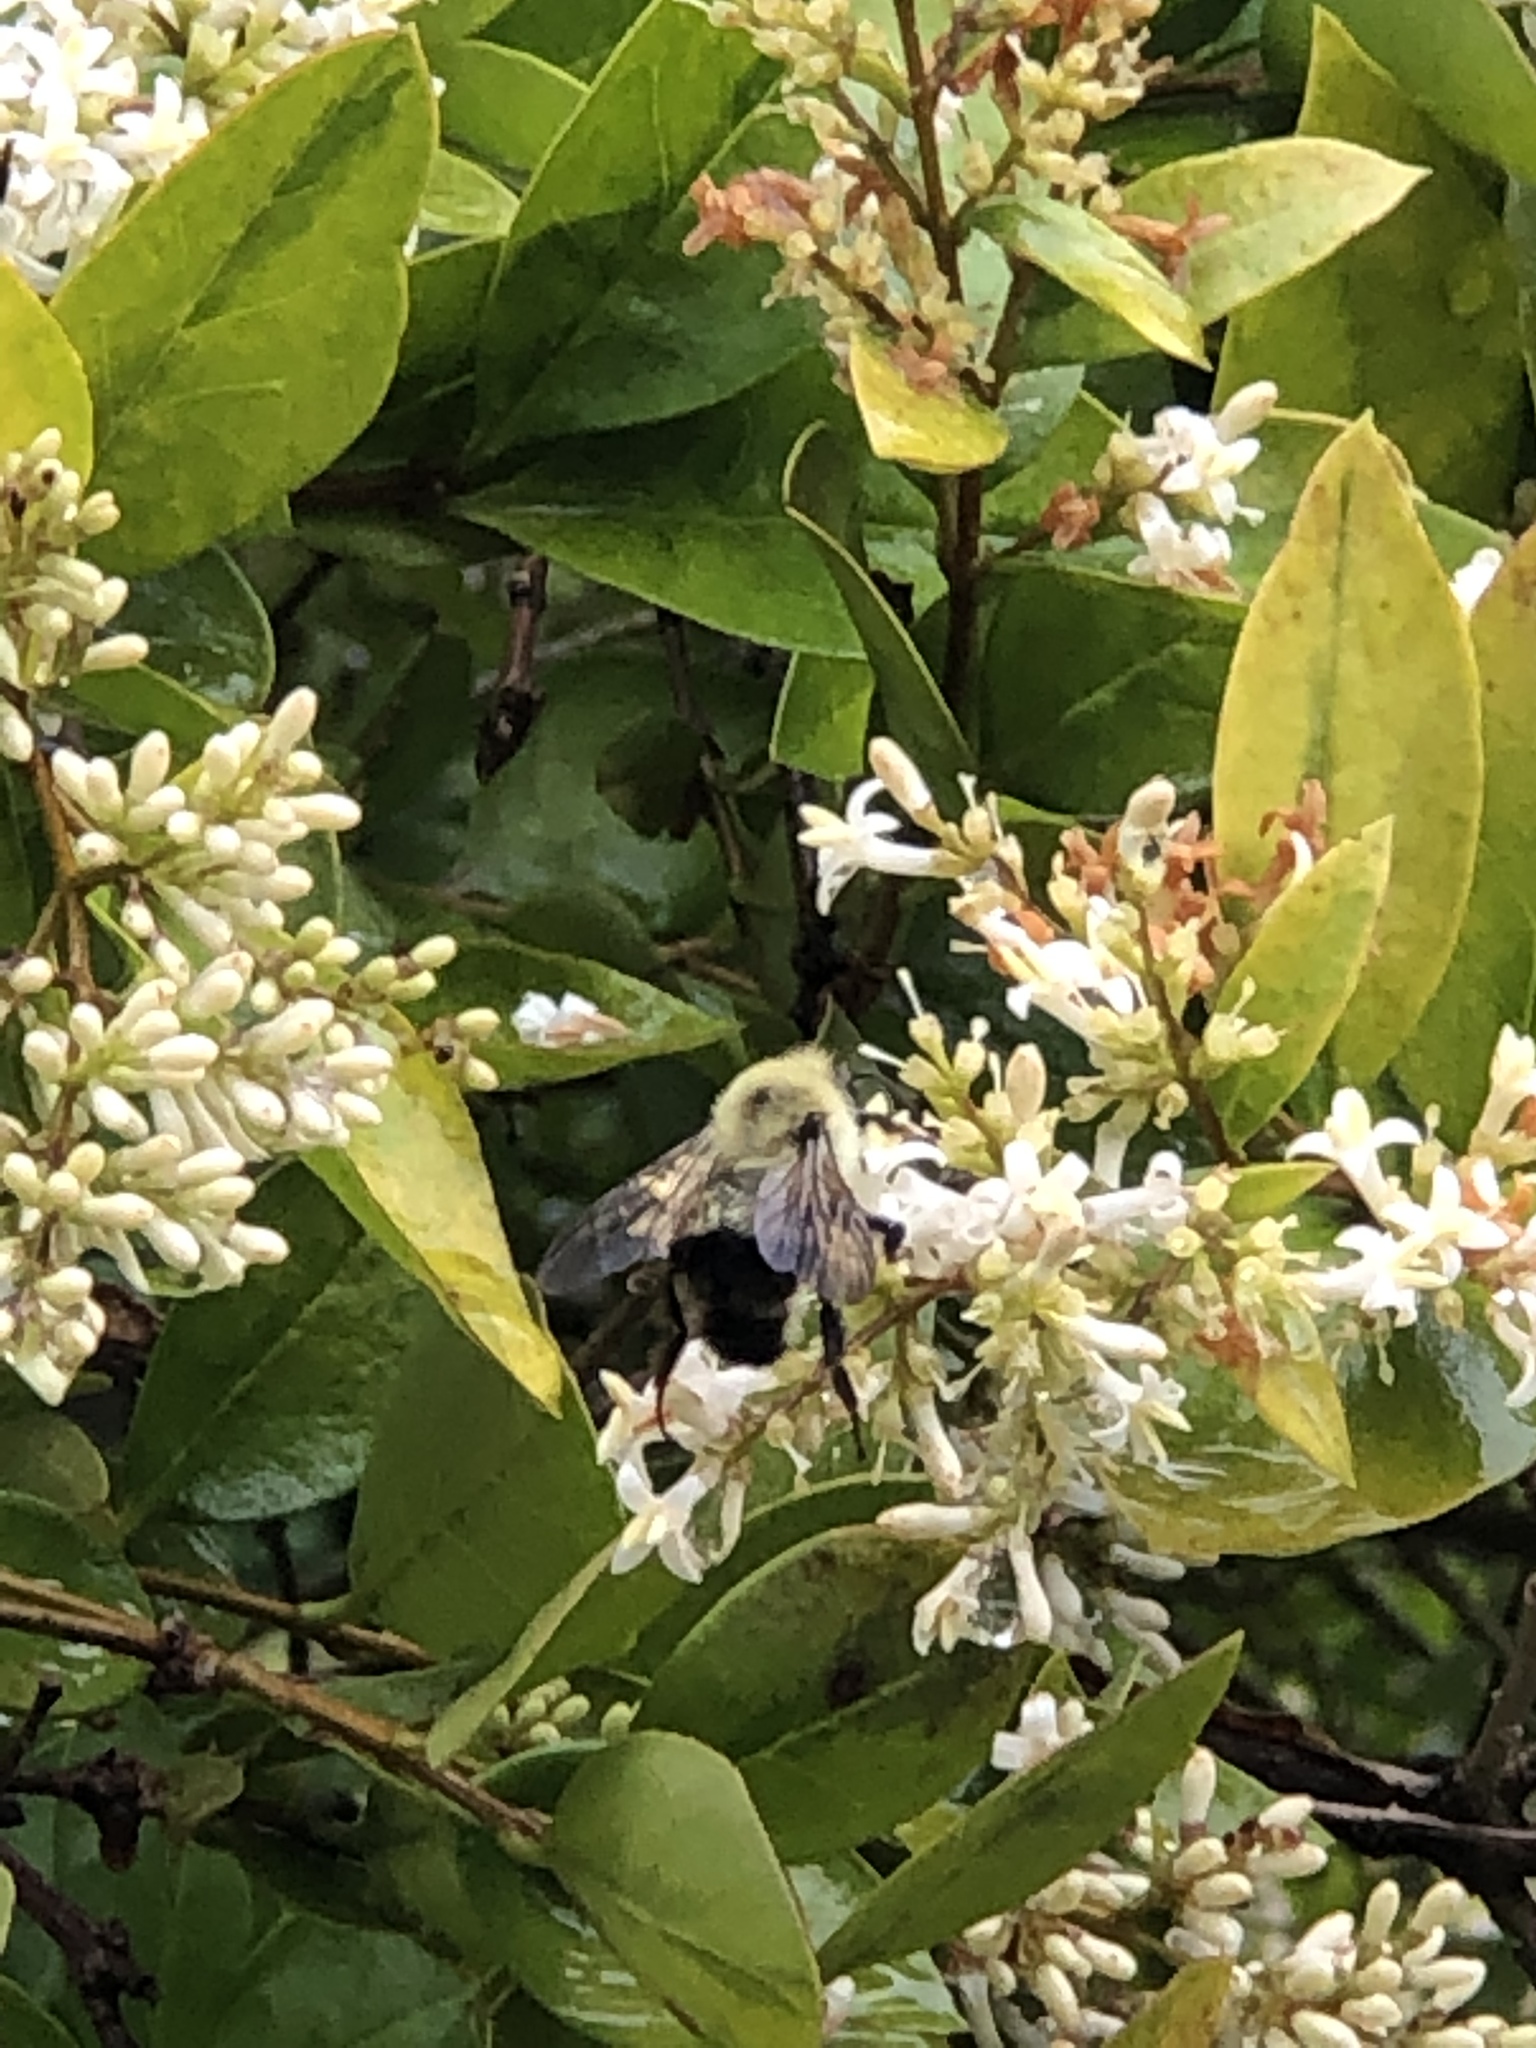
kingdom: Animalia
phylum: Arthropoda
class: Insecta
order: Hymenoptera
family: Apidae
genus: Bombus
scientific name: Bombus bimaculatus
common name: Two-spotted bumble bee
